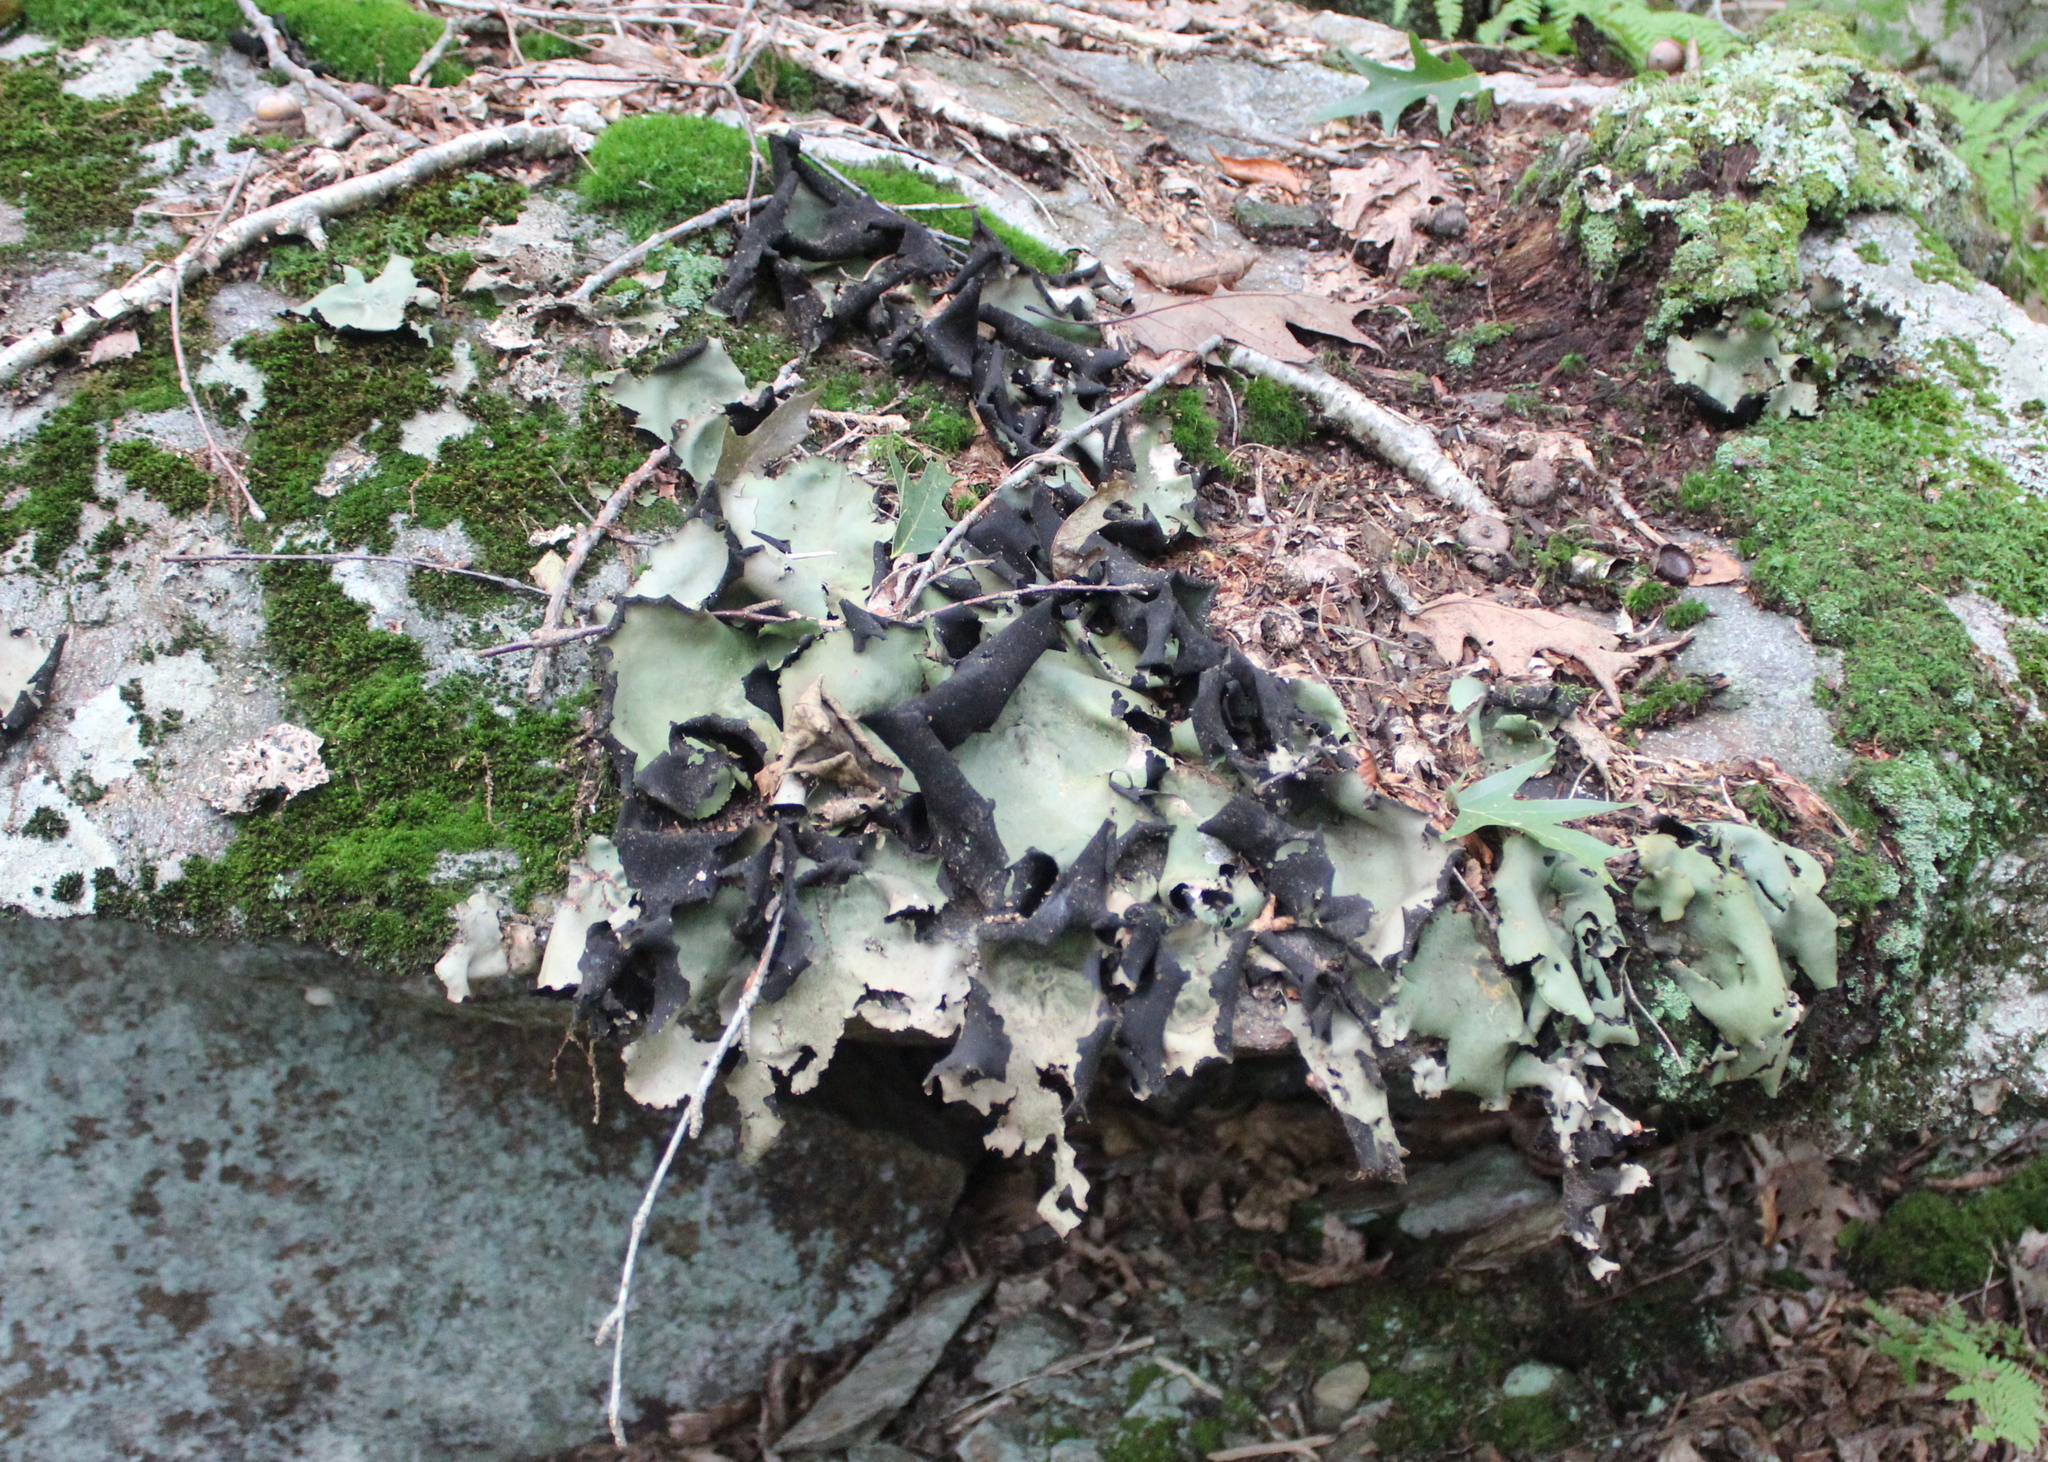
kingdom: Fungi
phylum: Ascomycota
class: Lecanoromycetes
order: Umbilicariales
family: Umbilicariaceae
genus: Umbilicaria
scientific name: Umbilicaria mammulata
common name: Smooth rock tripe
